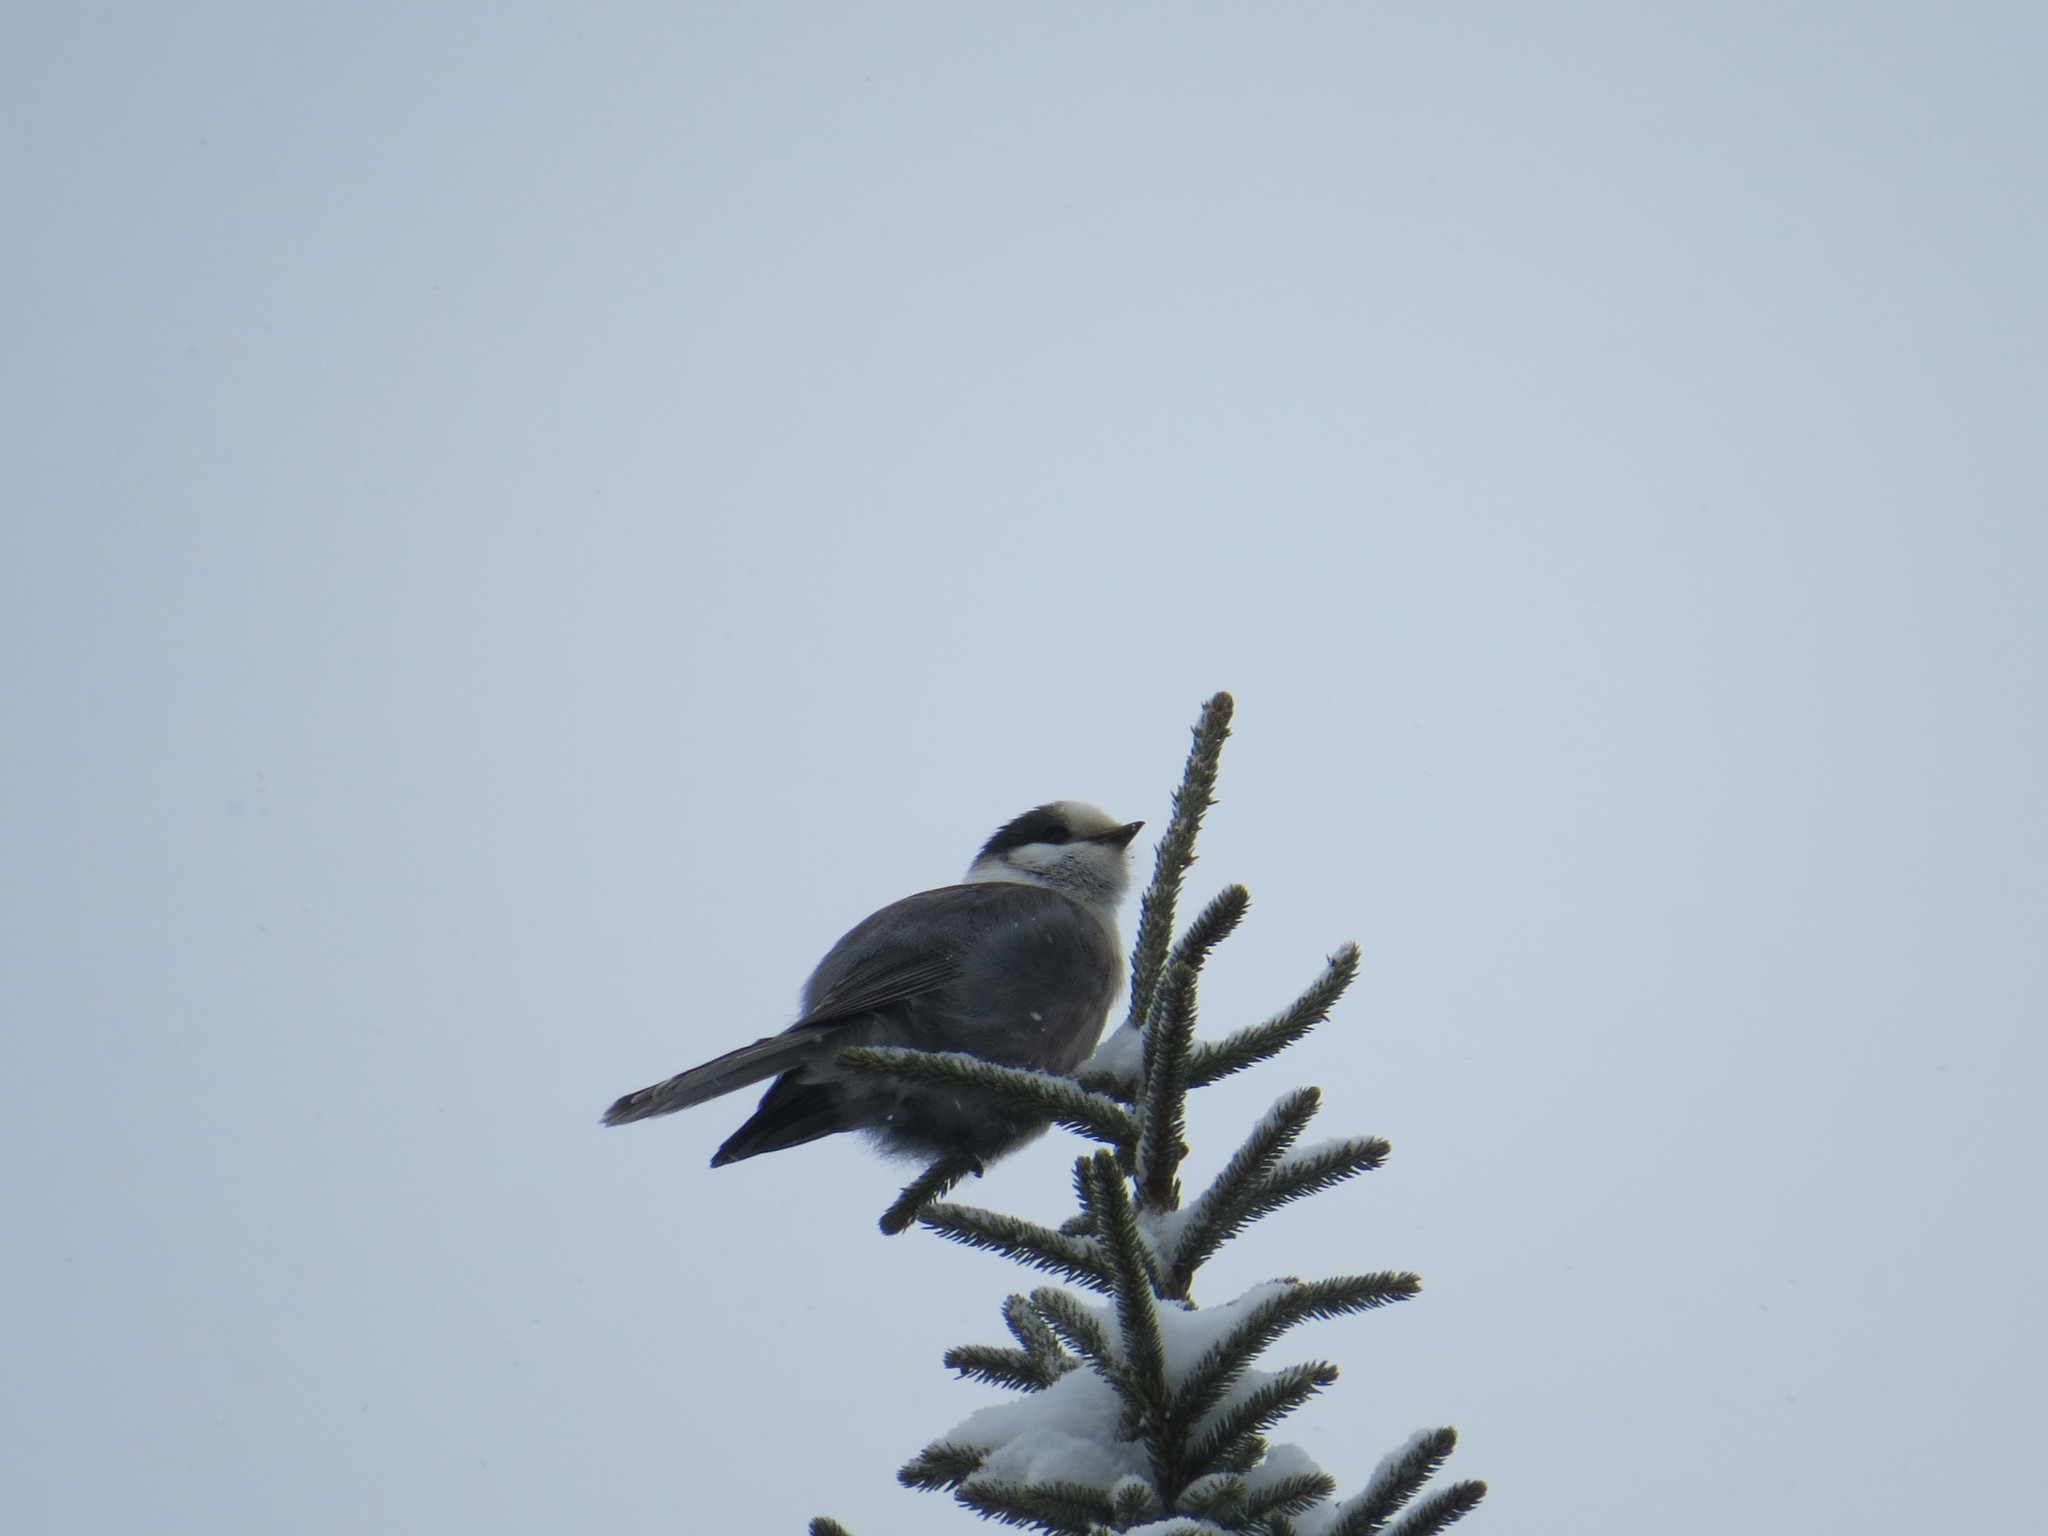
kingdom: Animalia
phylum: Chordata
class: Aves
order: Passeriformes
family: Corvidae
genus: Perisoreus
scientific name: Perisoreus canadensis
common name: Gray jay
